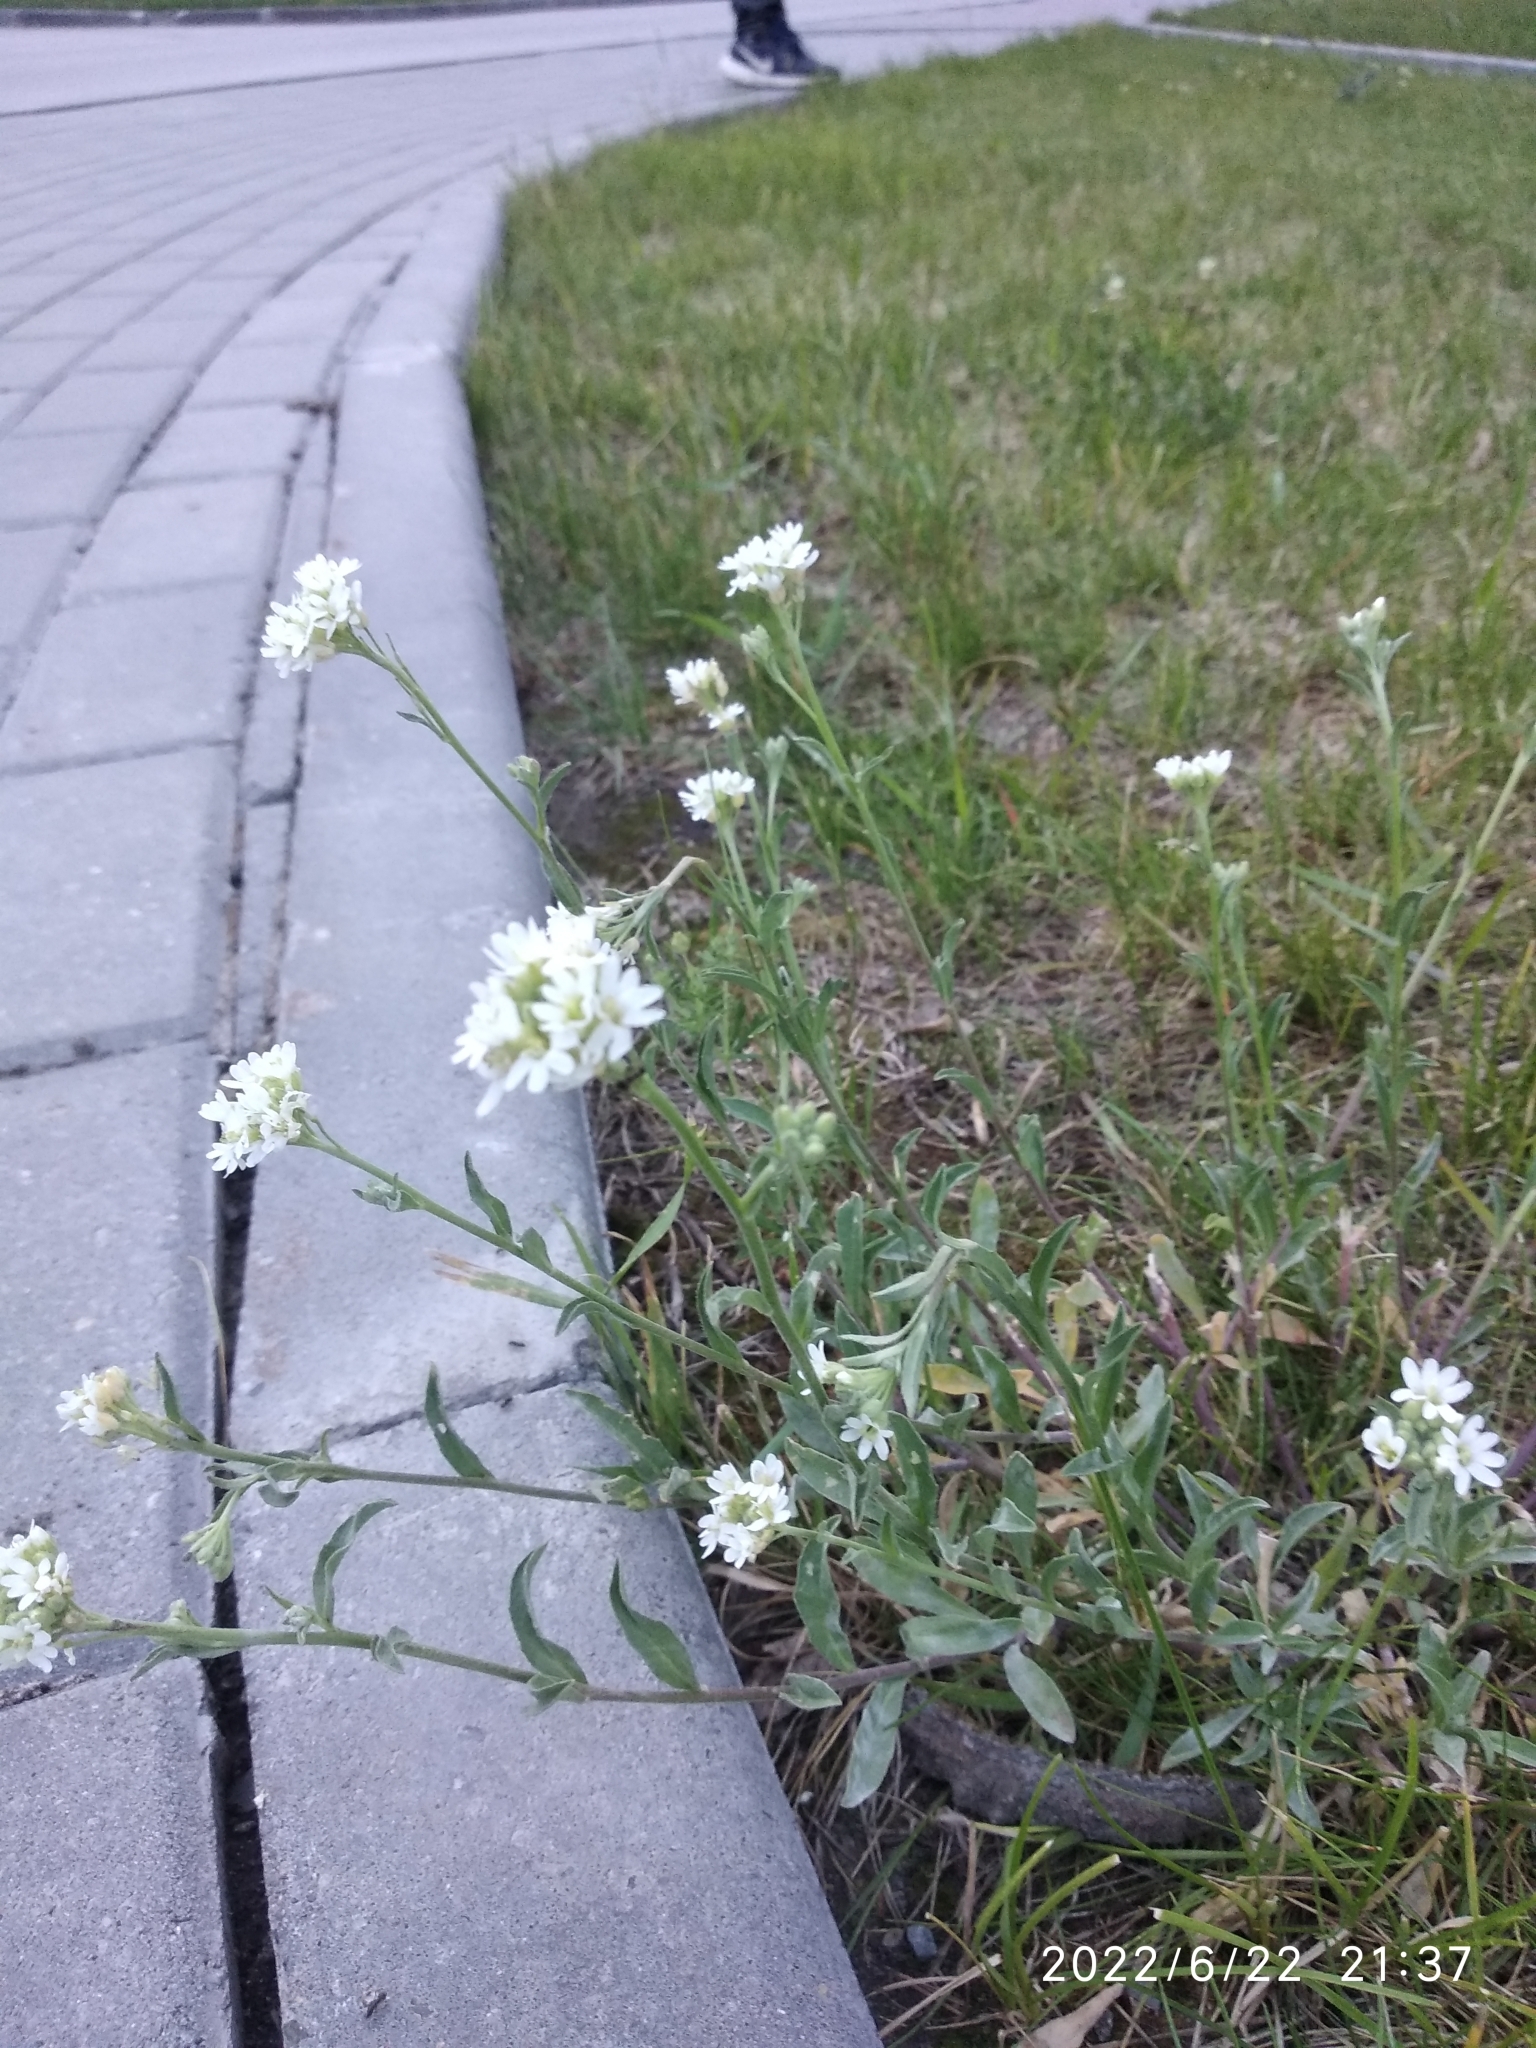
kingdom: Plantae
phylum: Tracheophyta
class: Magnoliopsida
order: Brassicales
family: Brassicaceae
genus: Berteroa
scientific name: Berteroa incana
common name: Hoary alison
